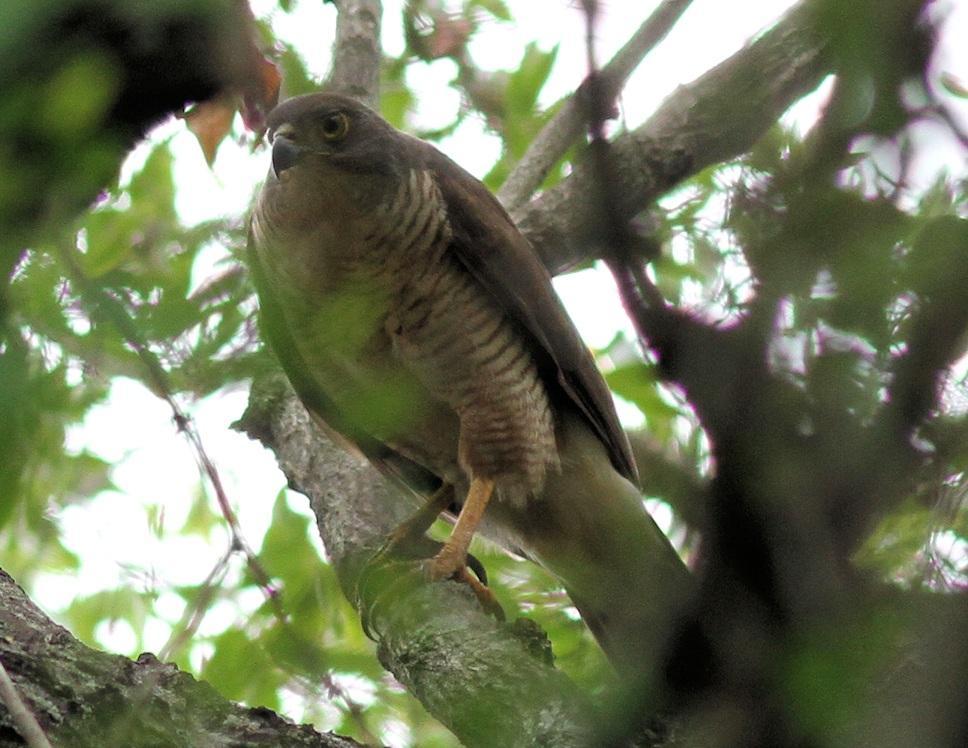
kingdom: Animalia
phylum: Chordata
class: Aves
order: Accipitriformes
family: Accipitridae
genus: Accipiter
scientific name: Accipiter tachiro
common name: African goshawk
